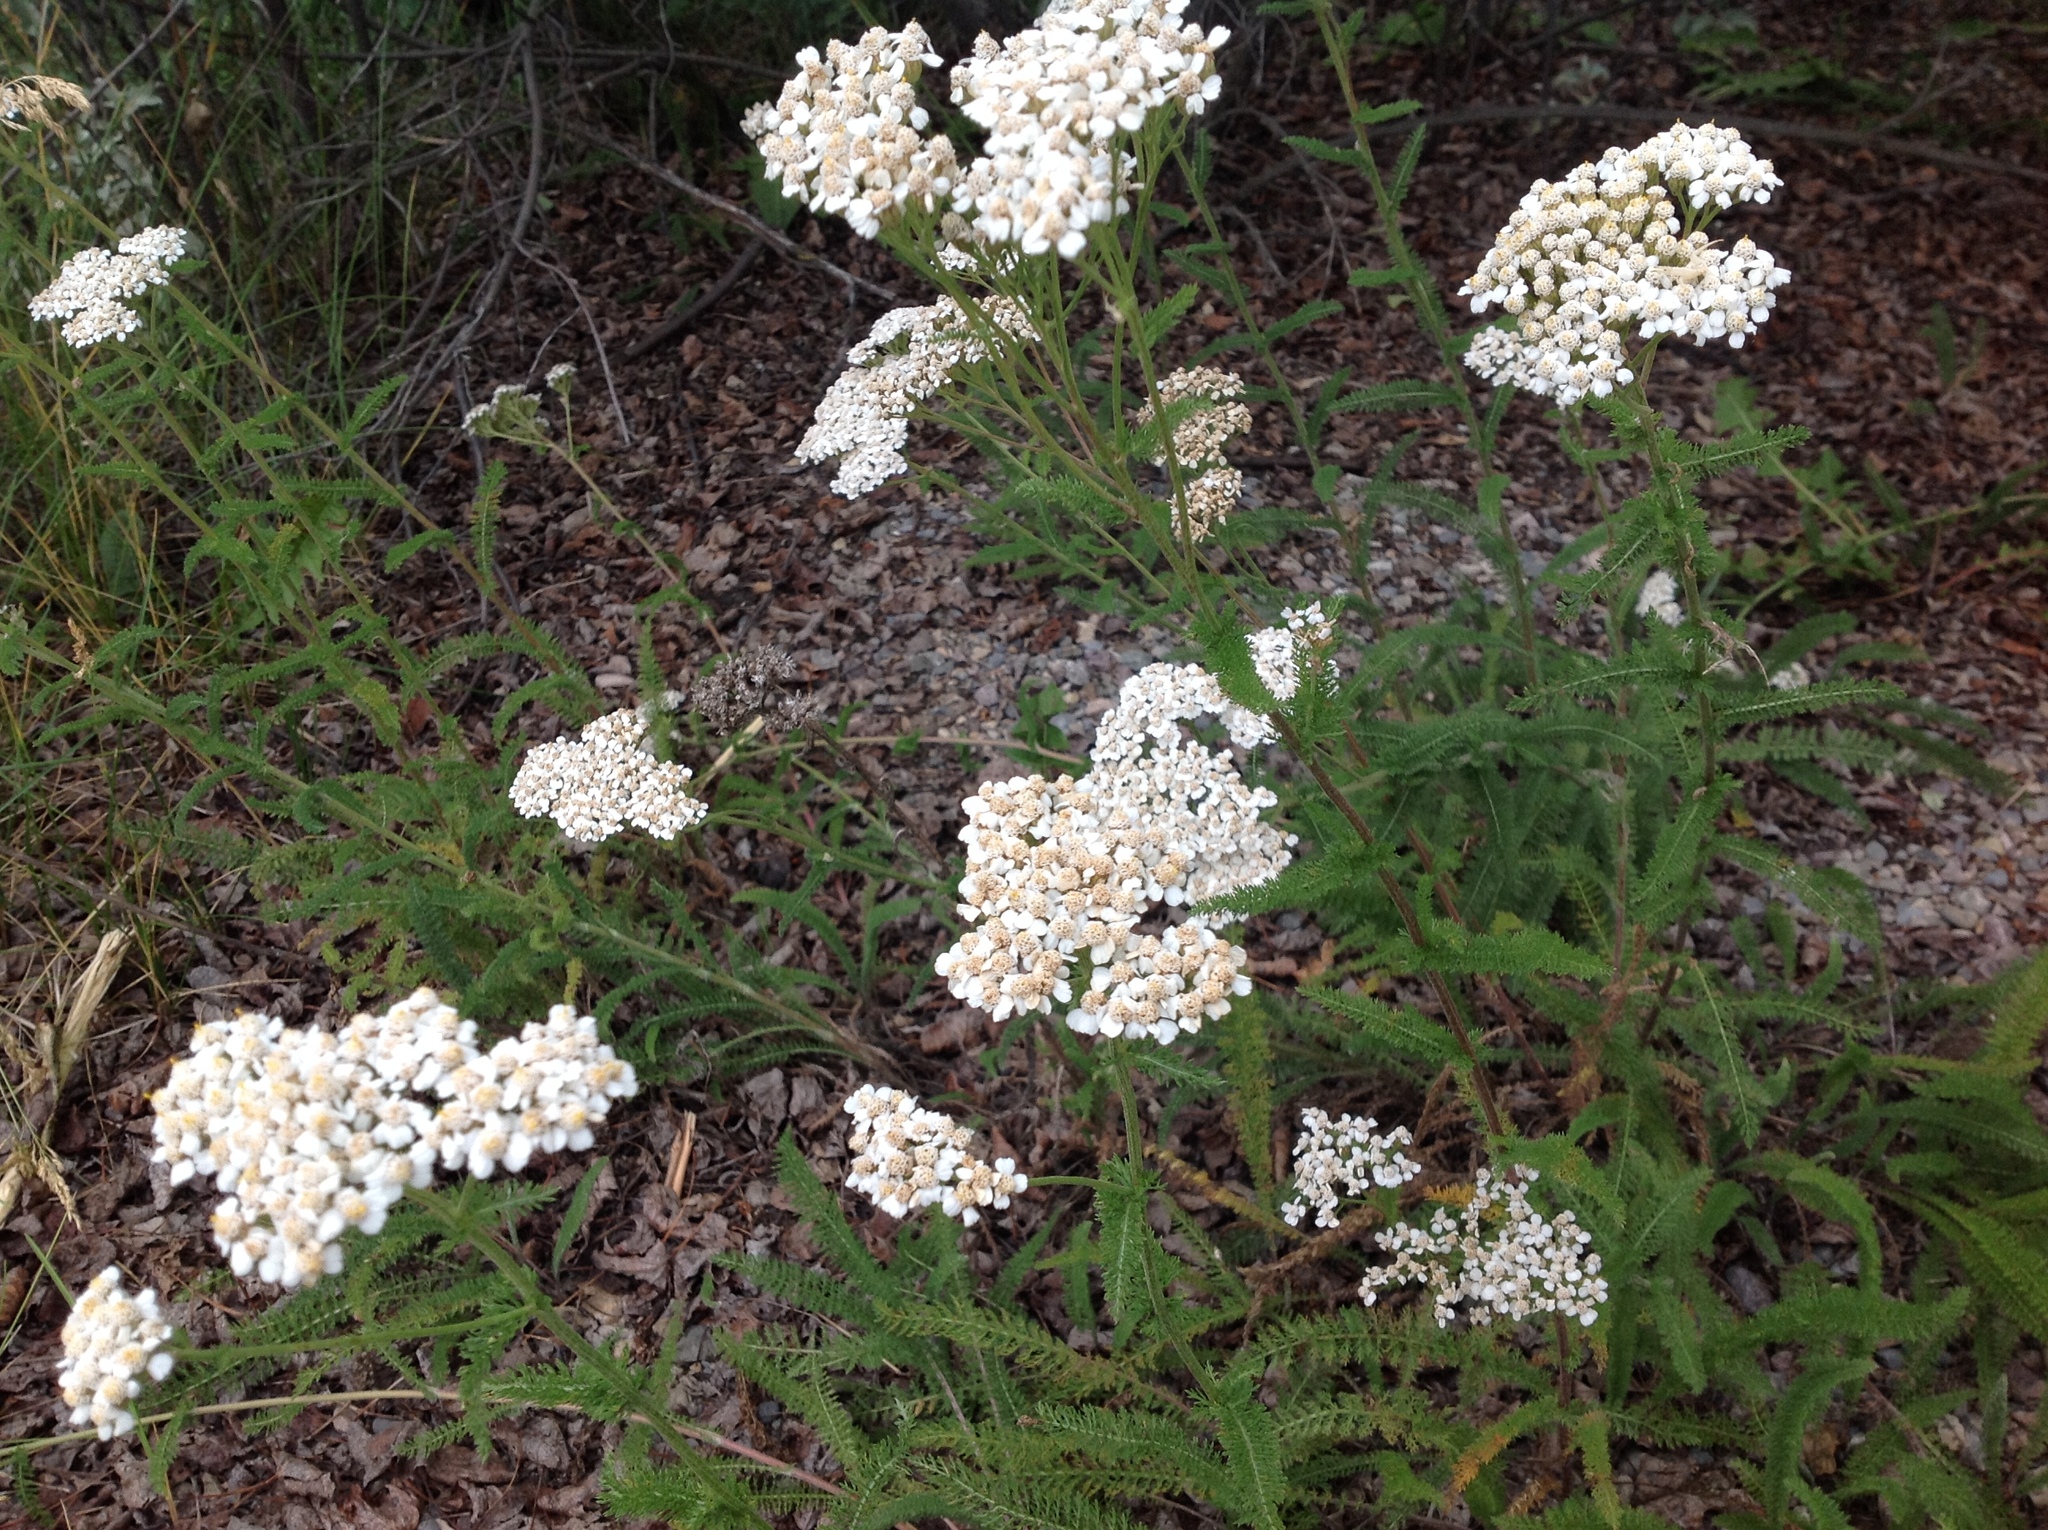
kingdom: Plantae
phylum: Tracheophyta
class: Magnoliopsida
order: Asterales
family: Asteraceae
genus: Achillea
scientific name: Achillea millefolium
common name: Yarrow
